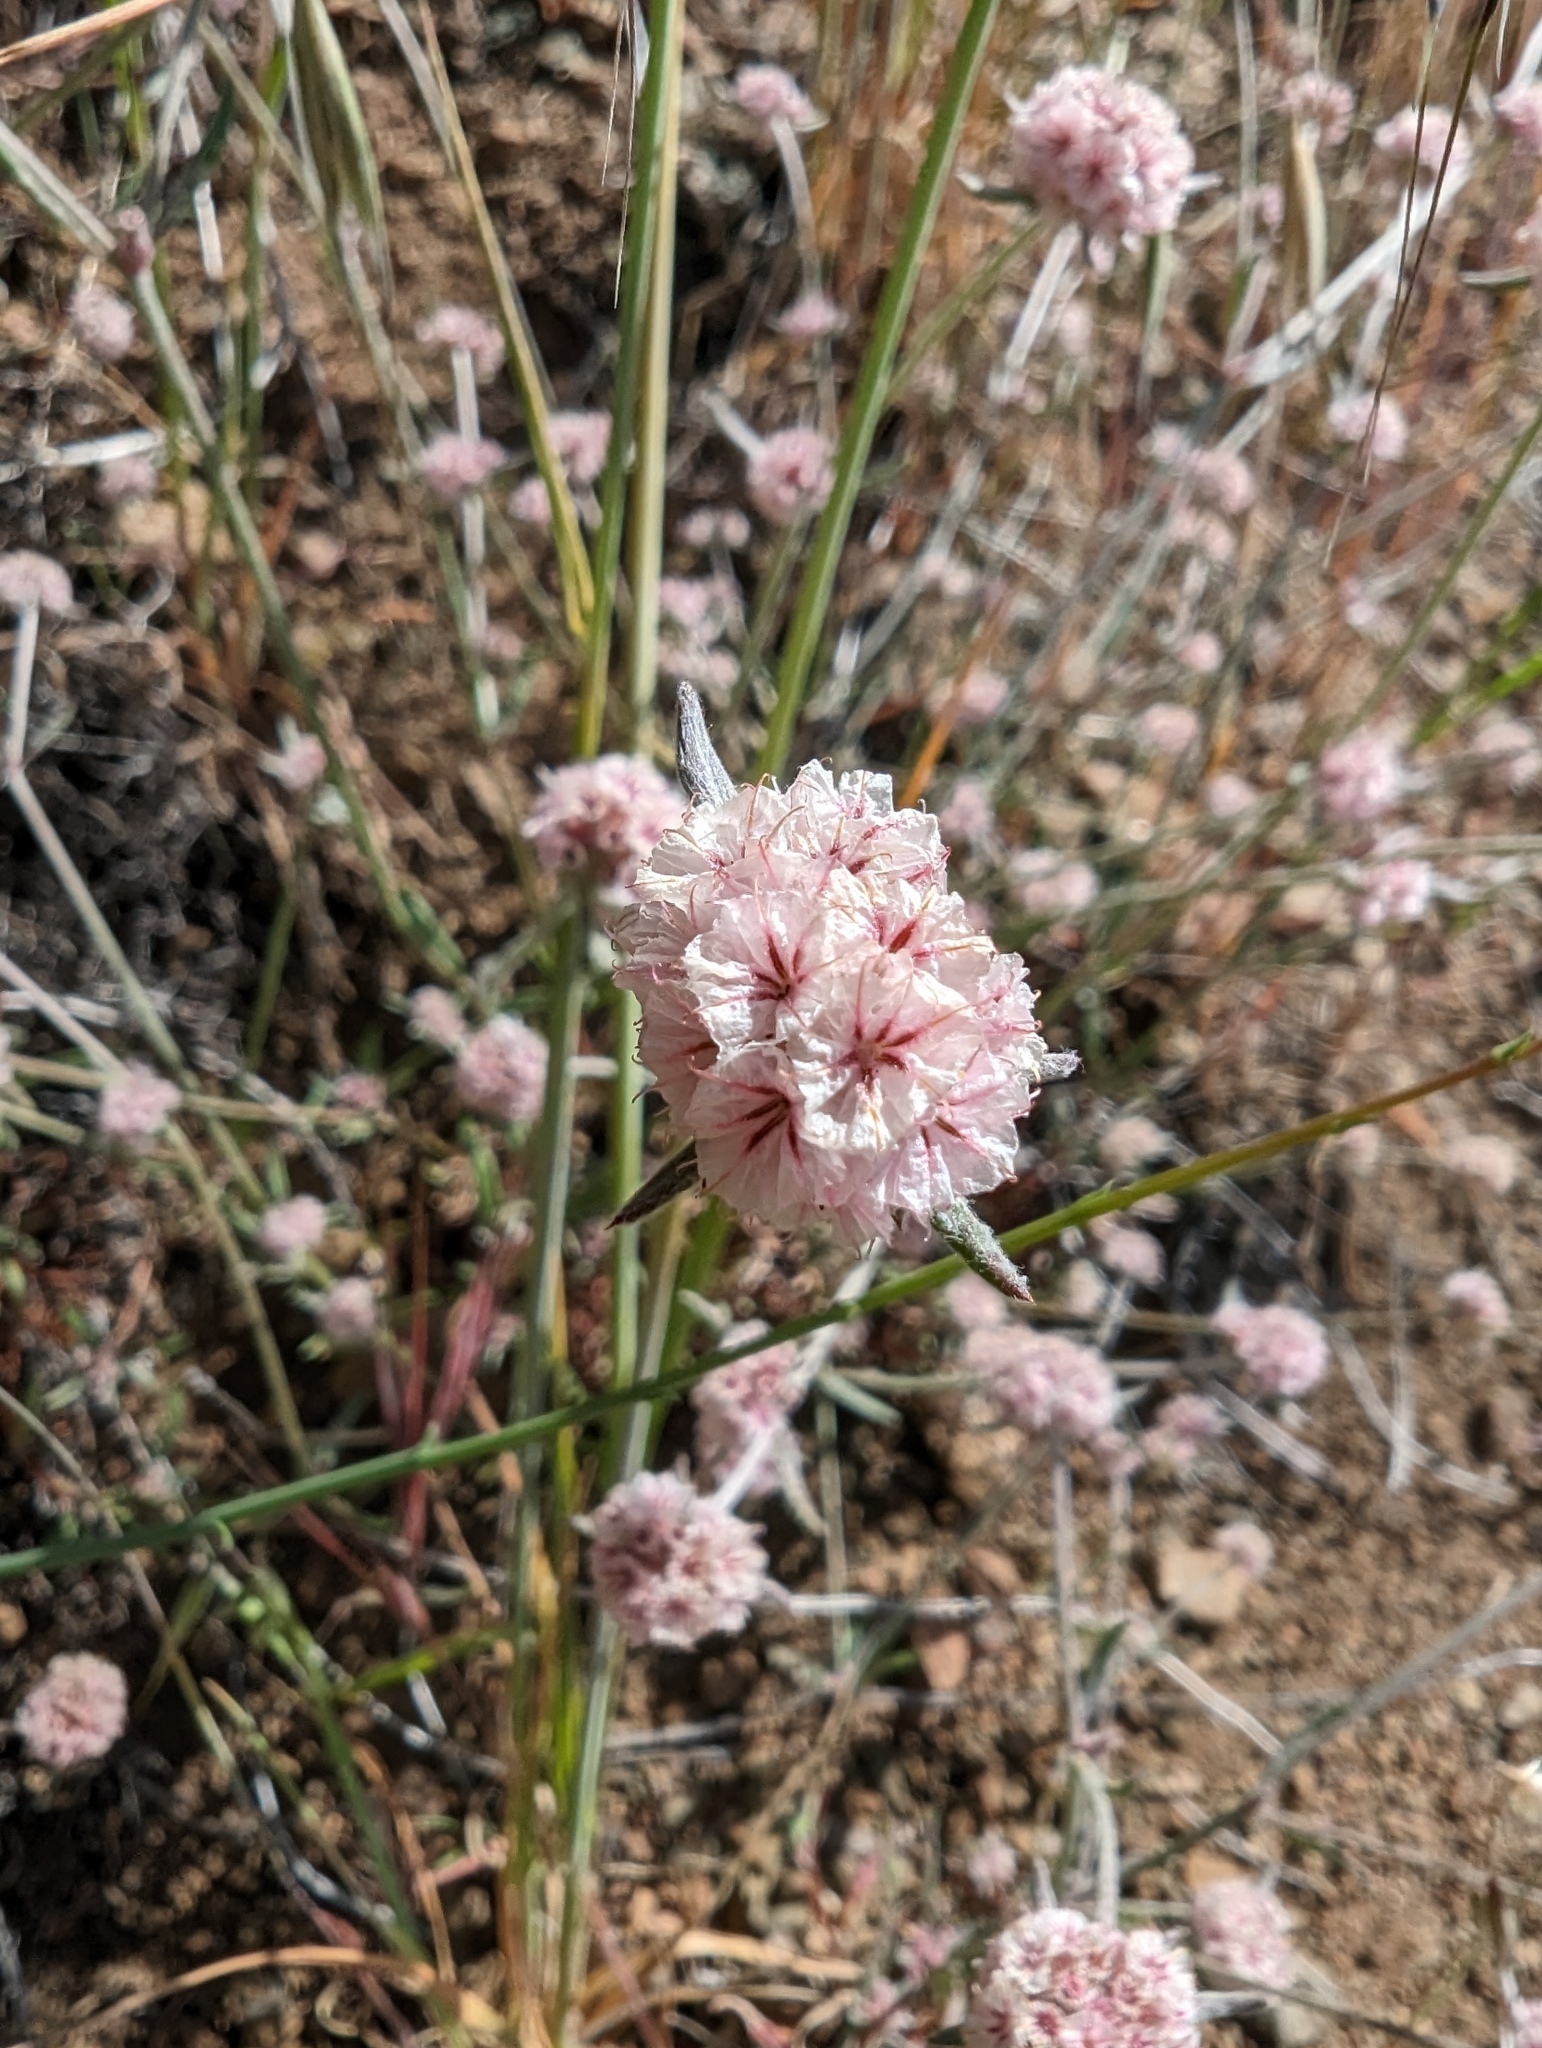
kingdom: Plantae
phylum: Tracheophyta
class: Magnoliopsida
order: Caryophyllales
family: Polygonaceae
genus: Chorizanthe
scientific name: Chorizanthe membranacea
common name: Pink spineflower
